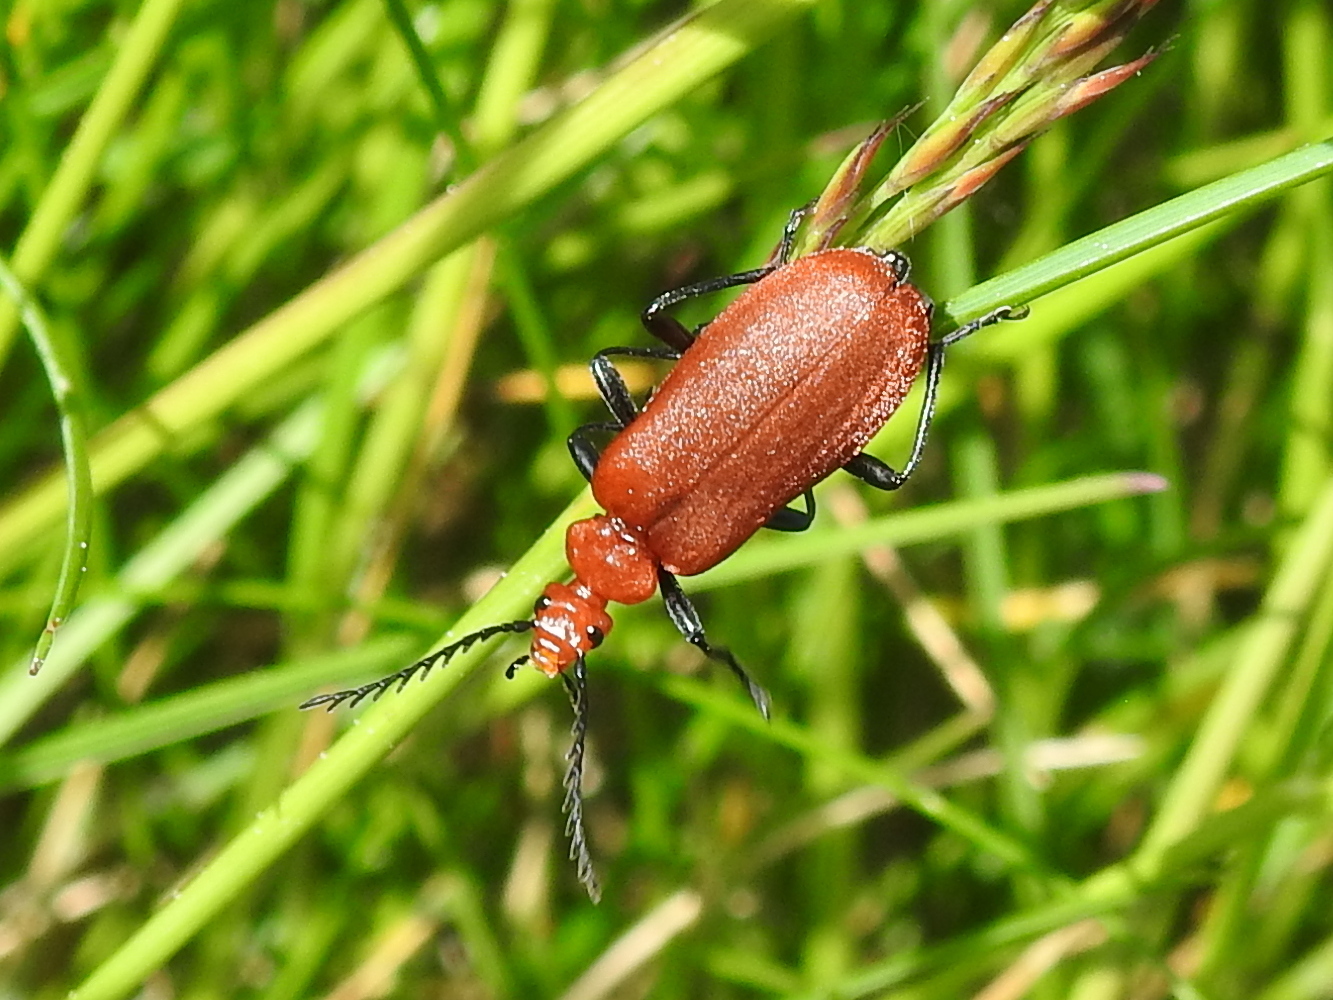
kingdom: Animalia
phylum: Arthropoda
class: Insecta
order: Coleoptera
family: Pyrochroidae
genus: Pyrochroa
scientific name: Pyrochroa serraticornis
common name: Red-headed cardinal beetle
